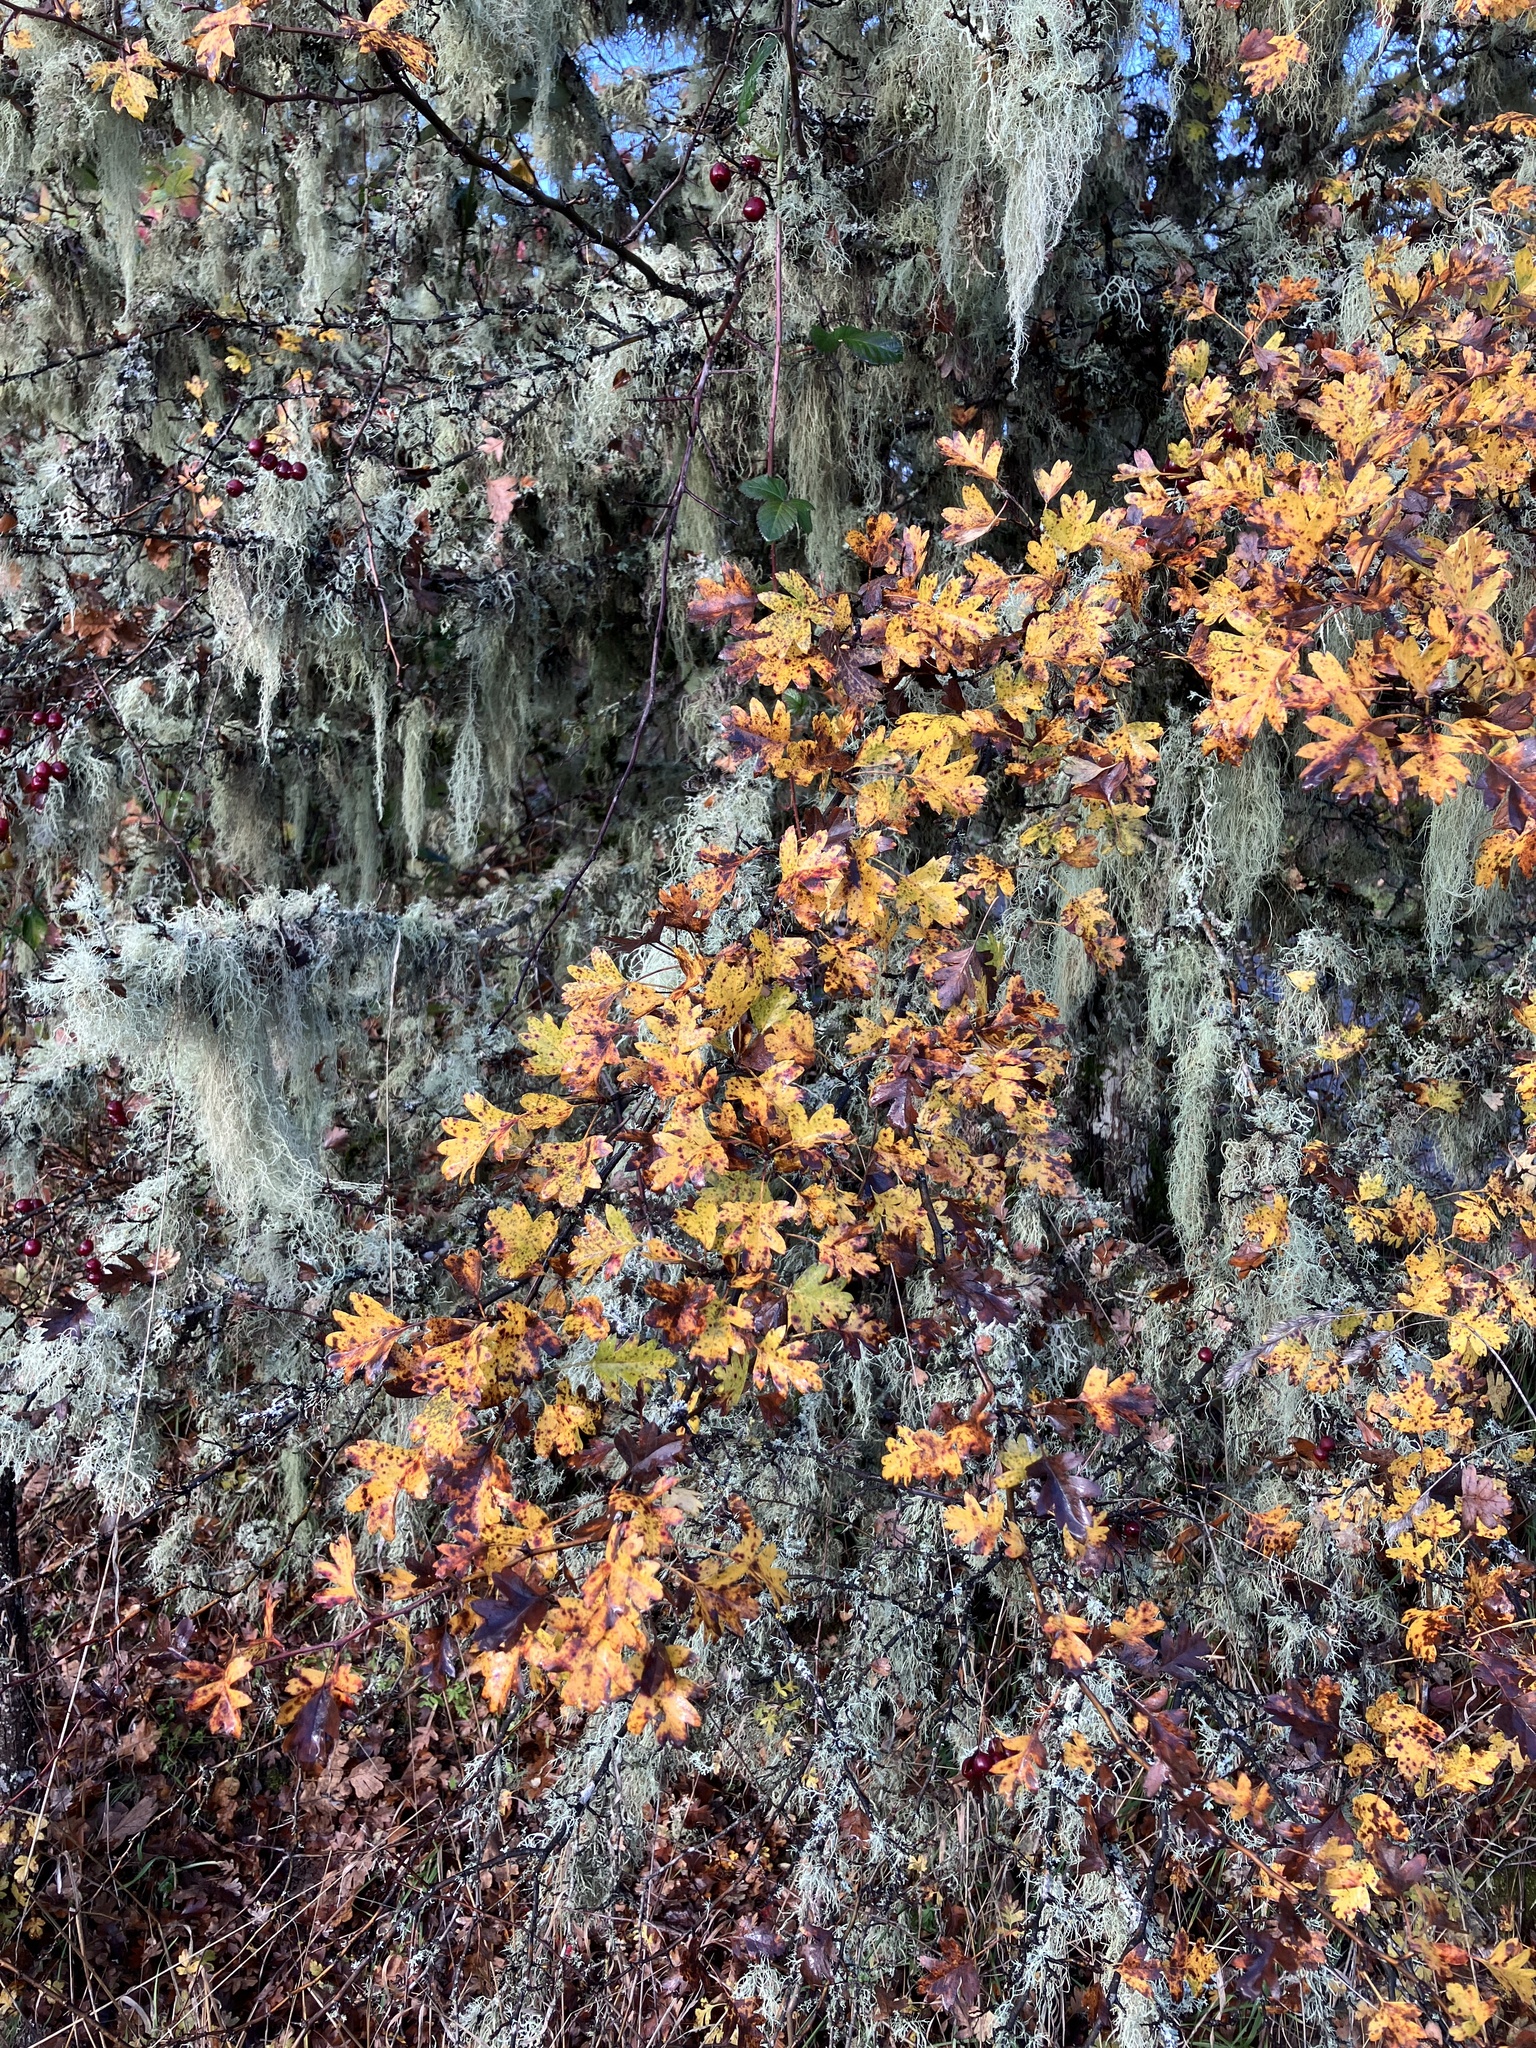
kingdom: Plantae
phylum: Tracheophyta
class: Magnoliopsida
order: Rosales
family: Rosaceae
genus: Crataegus
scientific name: Crataegus monogyna
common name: Hawthorn
